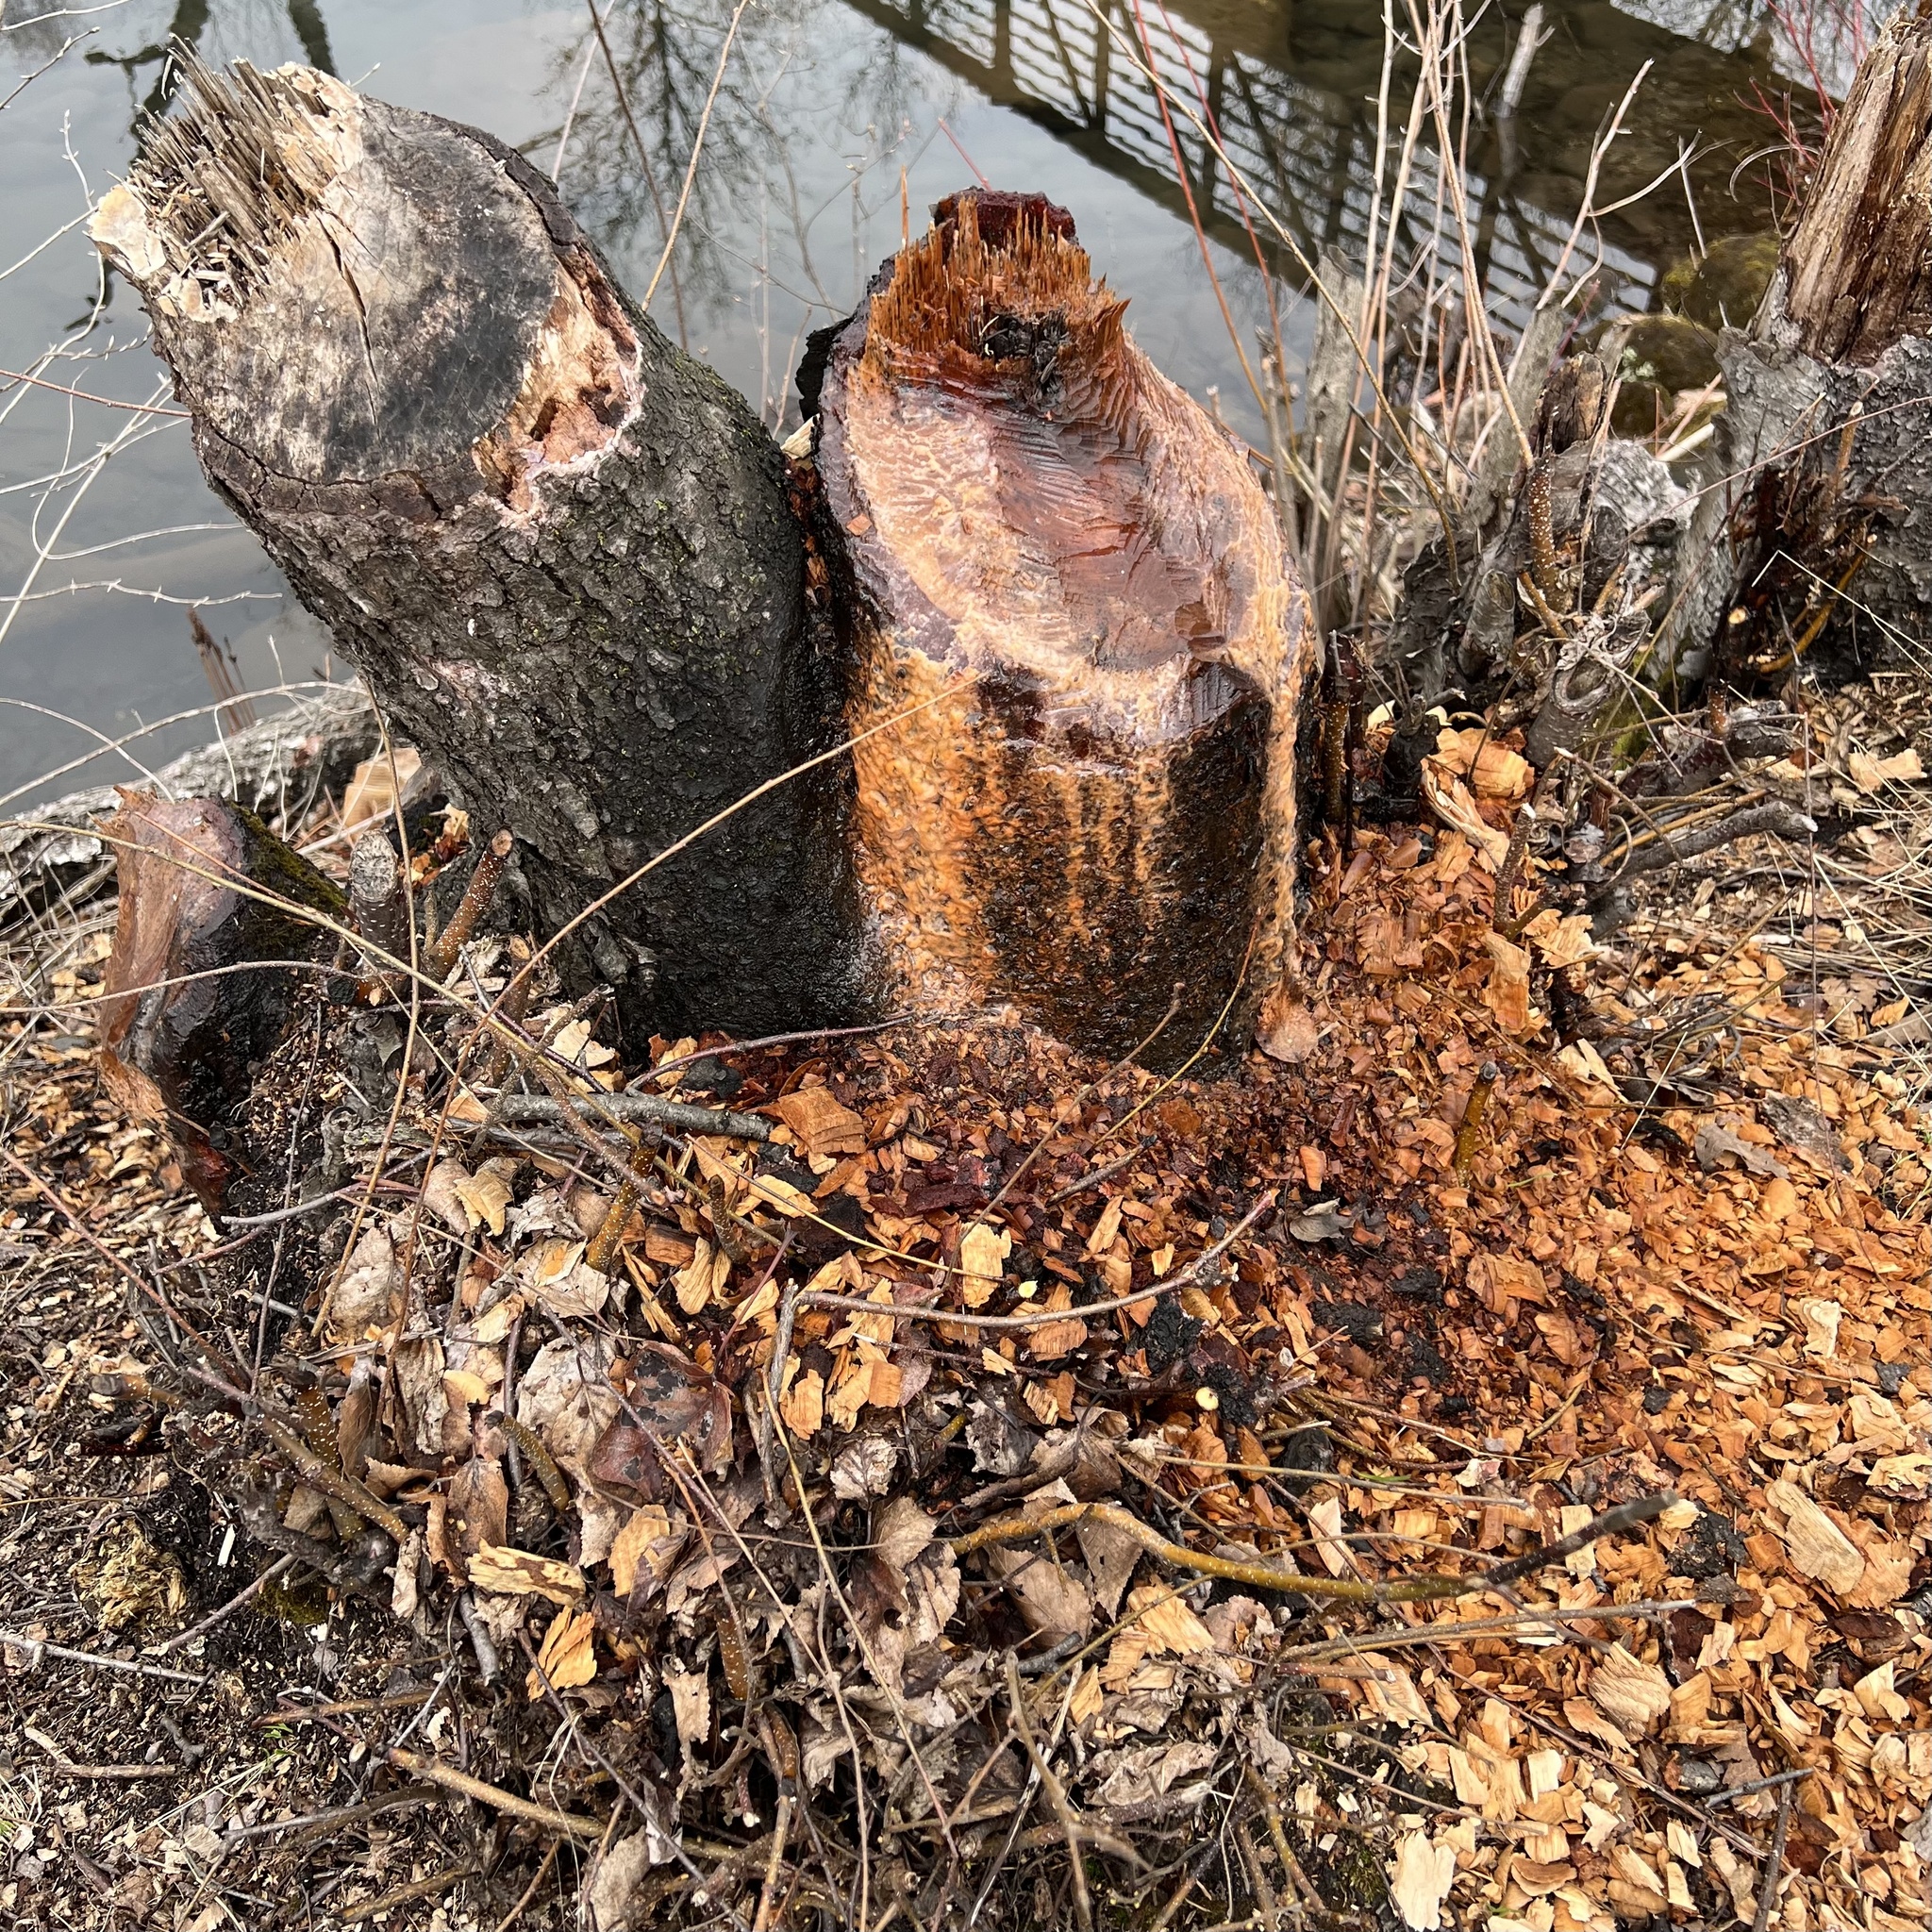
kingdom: Animalia
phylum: Chordata
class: Mammalia
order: Rodentia
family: Castoridae
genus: Castor
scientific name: Castor canadensis
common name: American beaver
